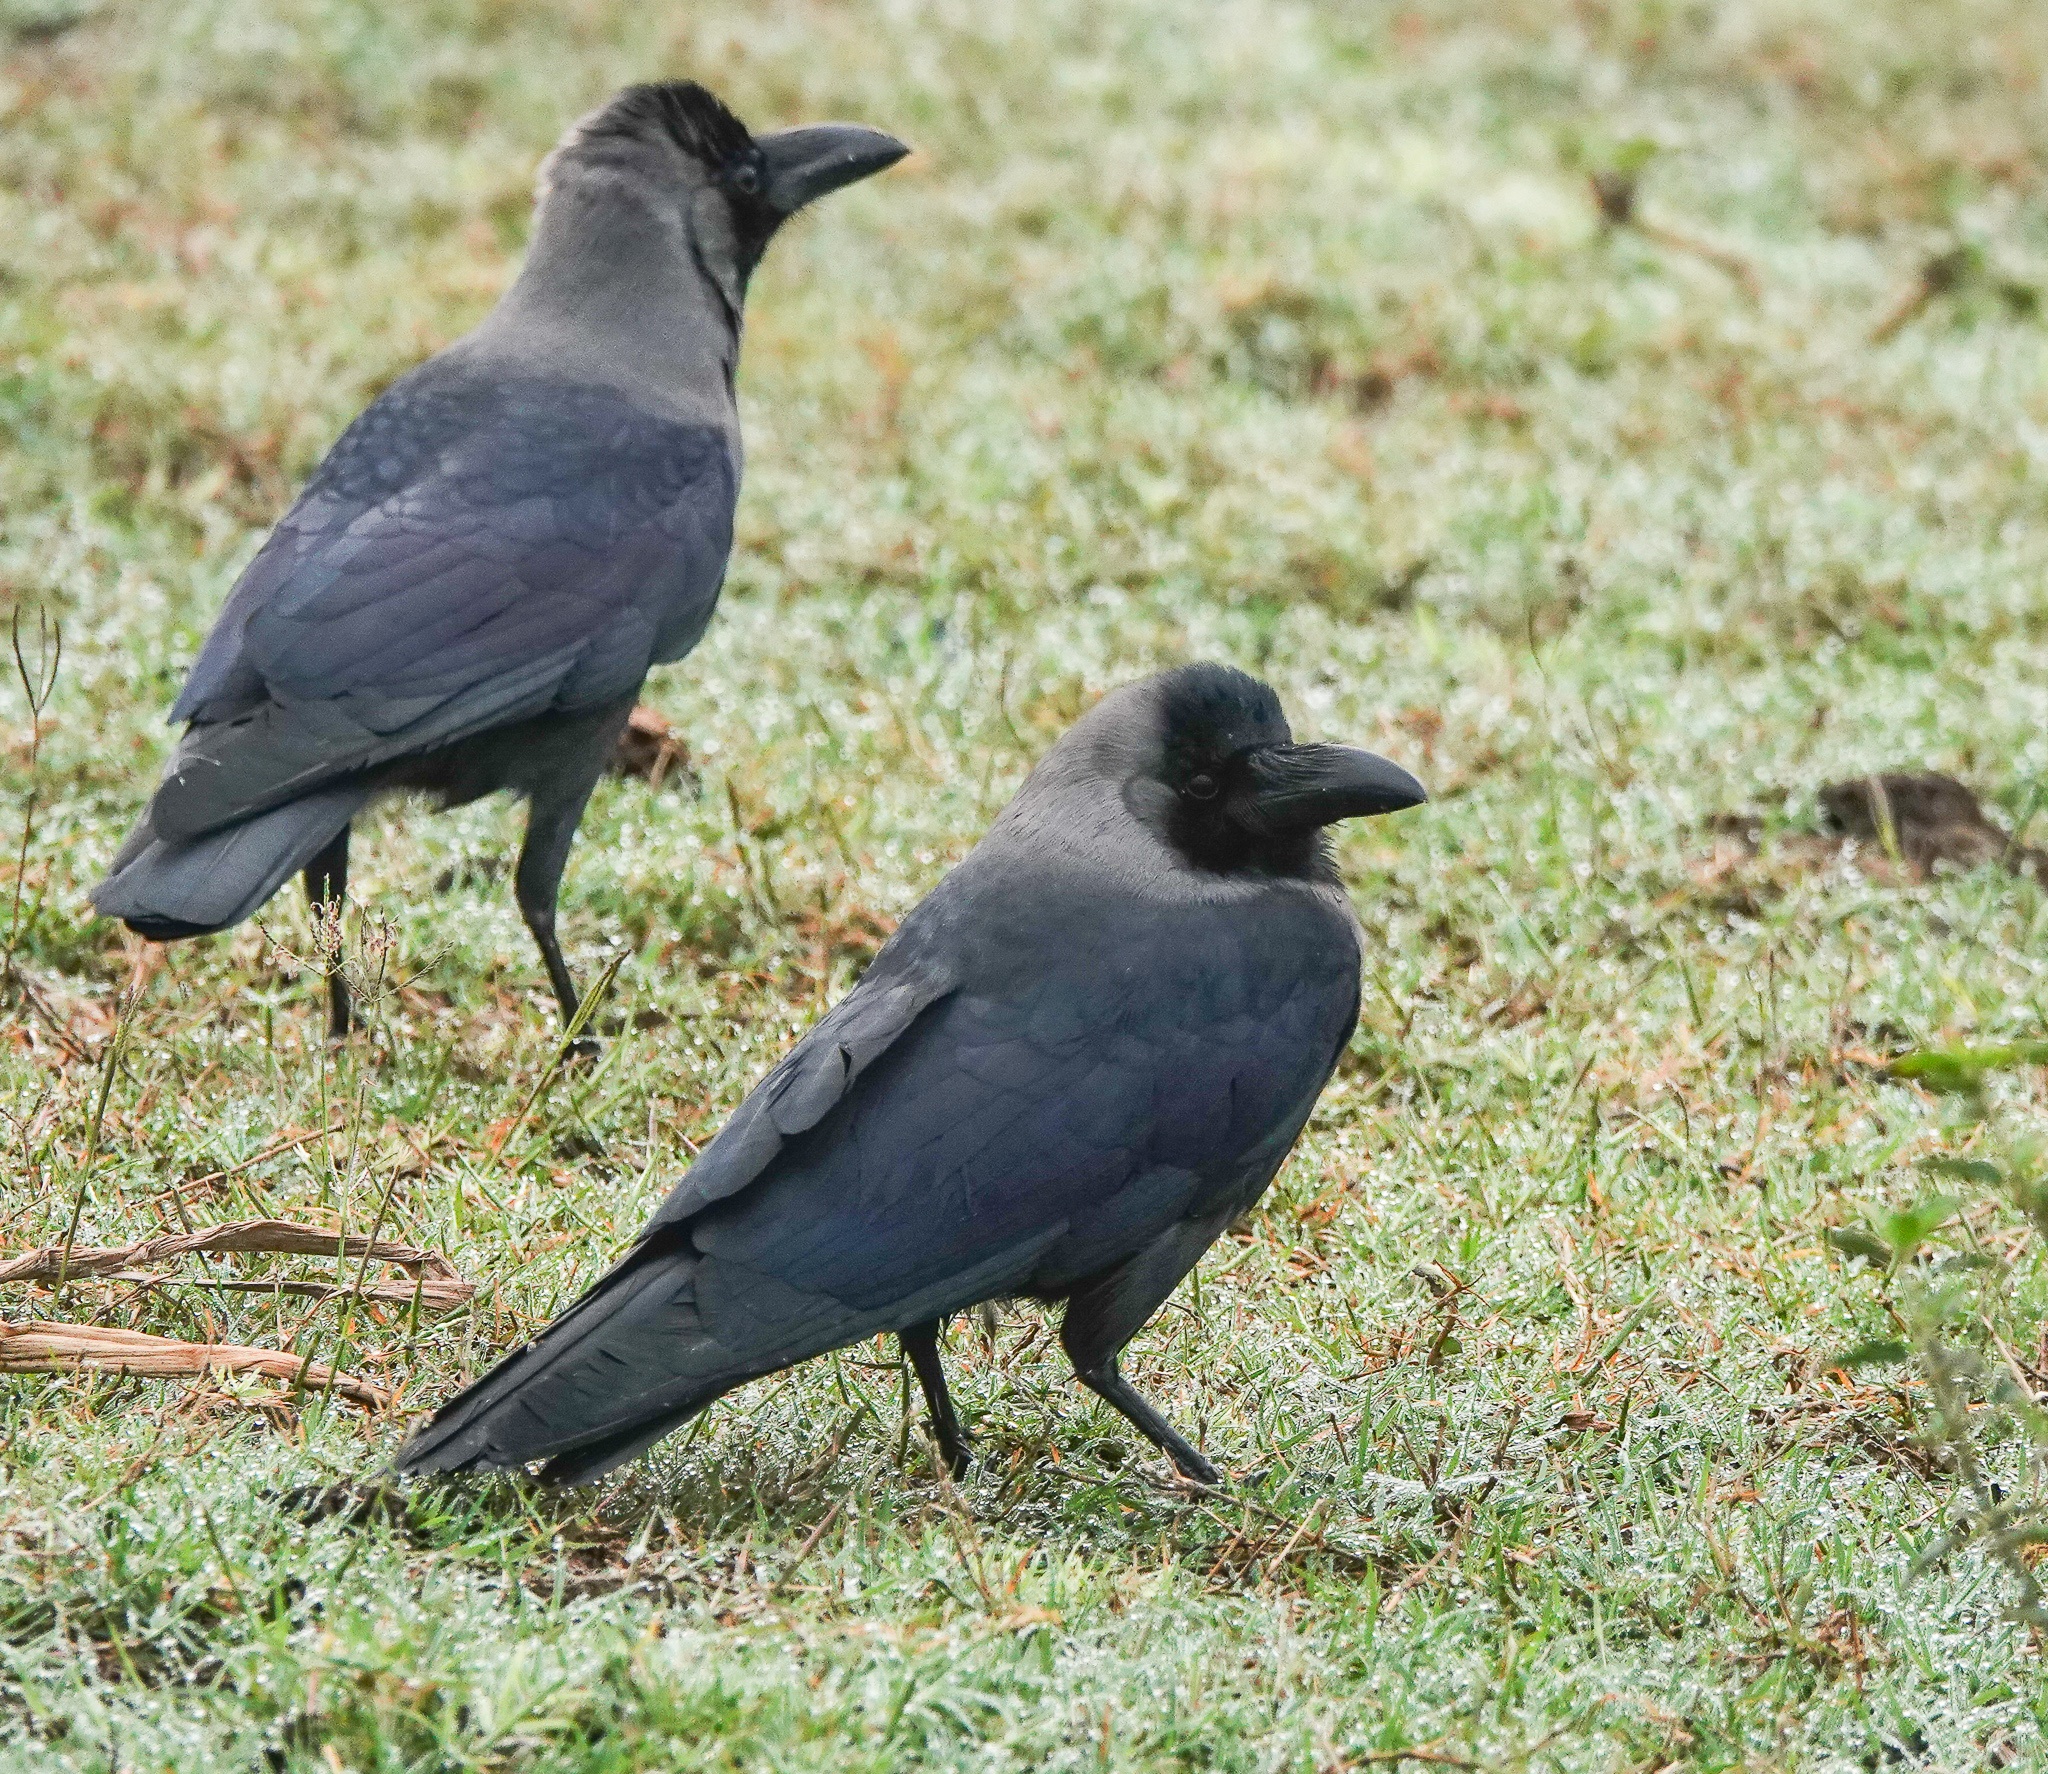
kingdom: Animalia
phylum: Chordata
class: Aves
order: Passeriformes
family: Corvidae
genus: Corvus
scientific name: Corvus splendens
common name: House crow
